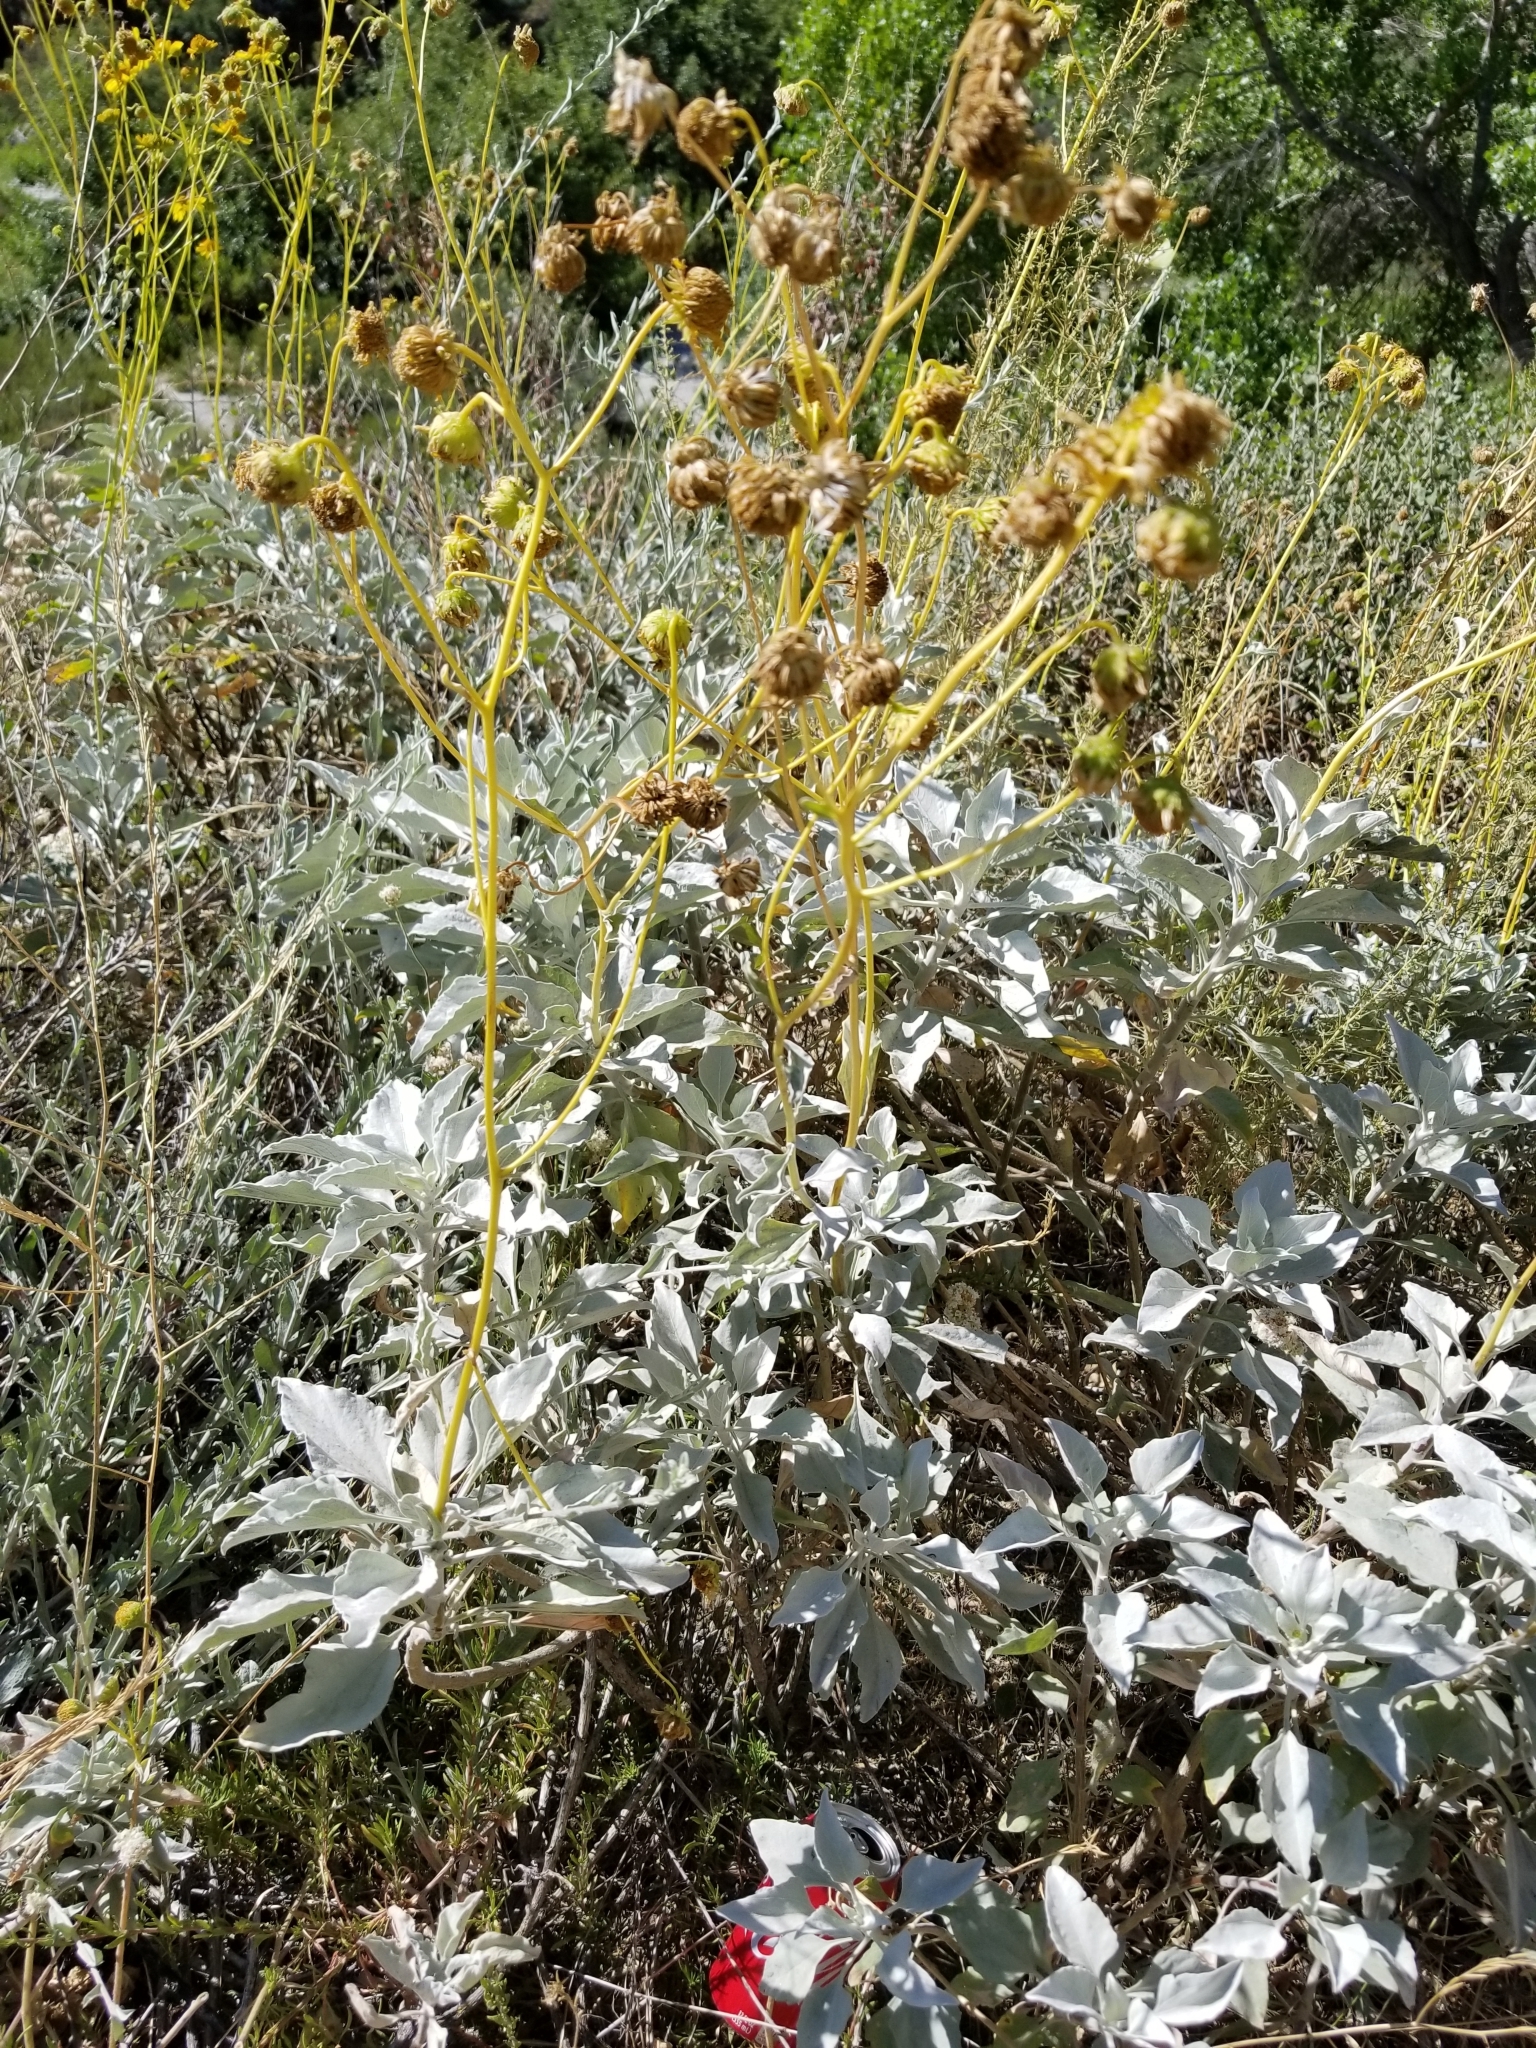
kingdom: Plantae
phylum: Tracheophyta
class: Magnoliopsida
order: Asterales
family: Asteraceae
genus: Encelia
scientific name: Encelia farinosa
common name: Brittlebush
